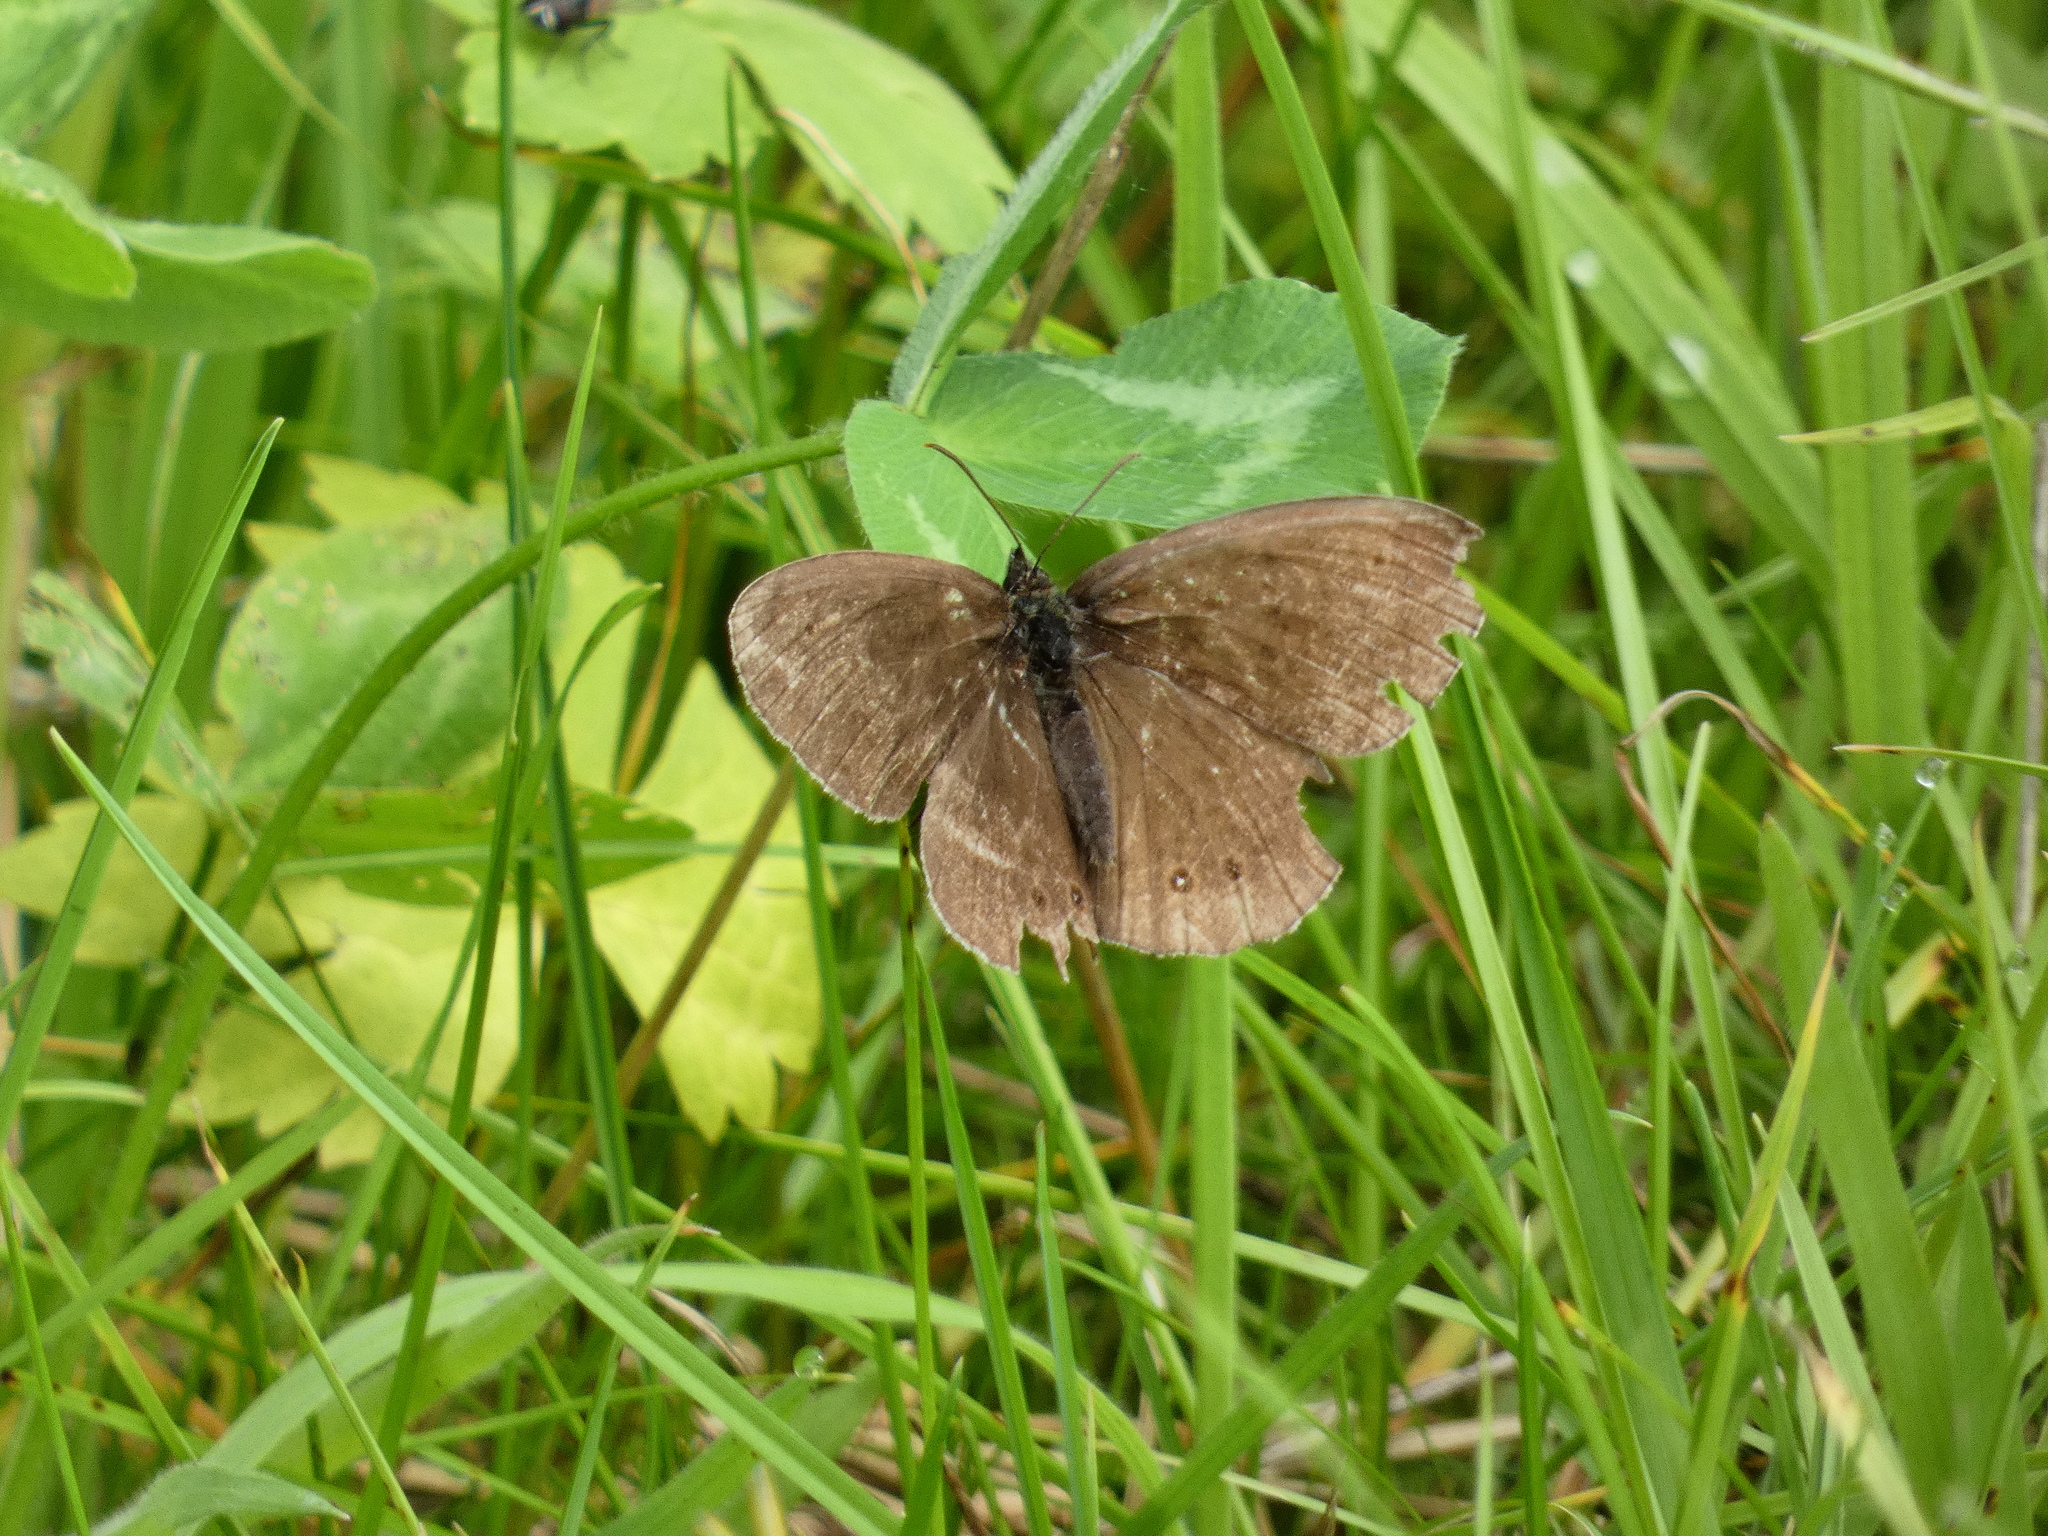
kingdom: Animalia
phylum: Arthropoda
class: Insecta
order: Lepidoptera
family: Nymphalidae
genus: Aphantopus
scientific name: Aphantopus hyperantus
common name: Ringlet
